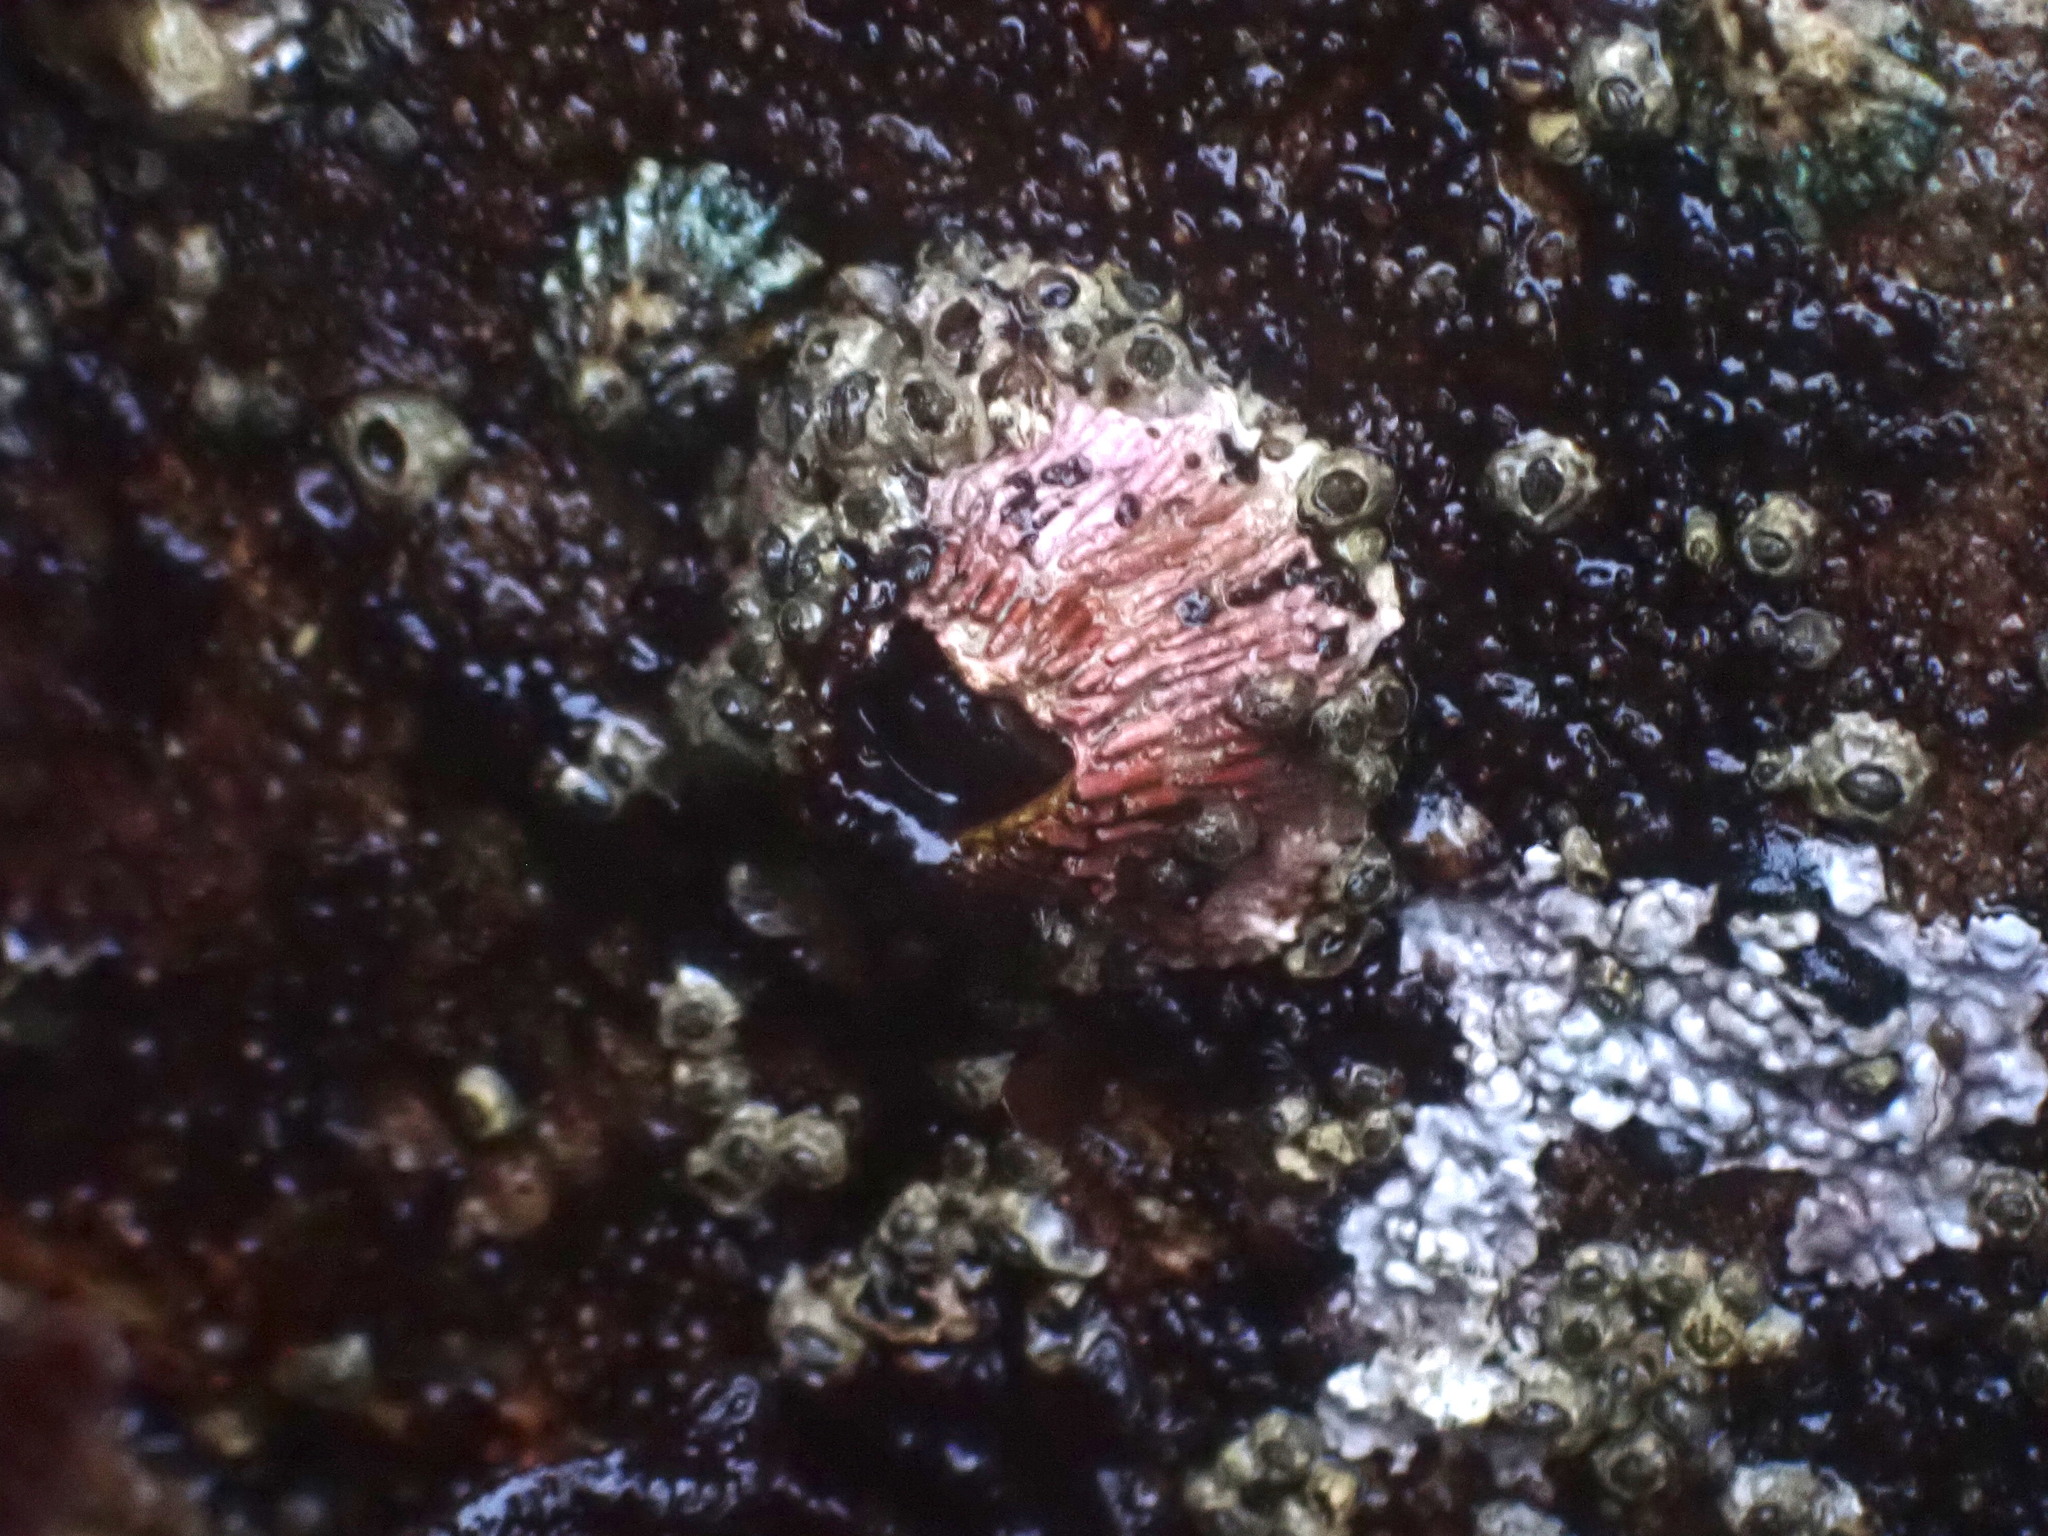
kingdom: Animalia
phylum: Arthropoda
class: Maxillopoda
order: Sessilia
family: Tetraclitidae
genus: Tetraclita
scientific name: Tetraclita rubescens
